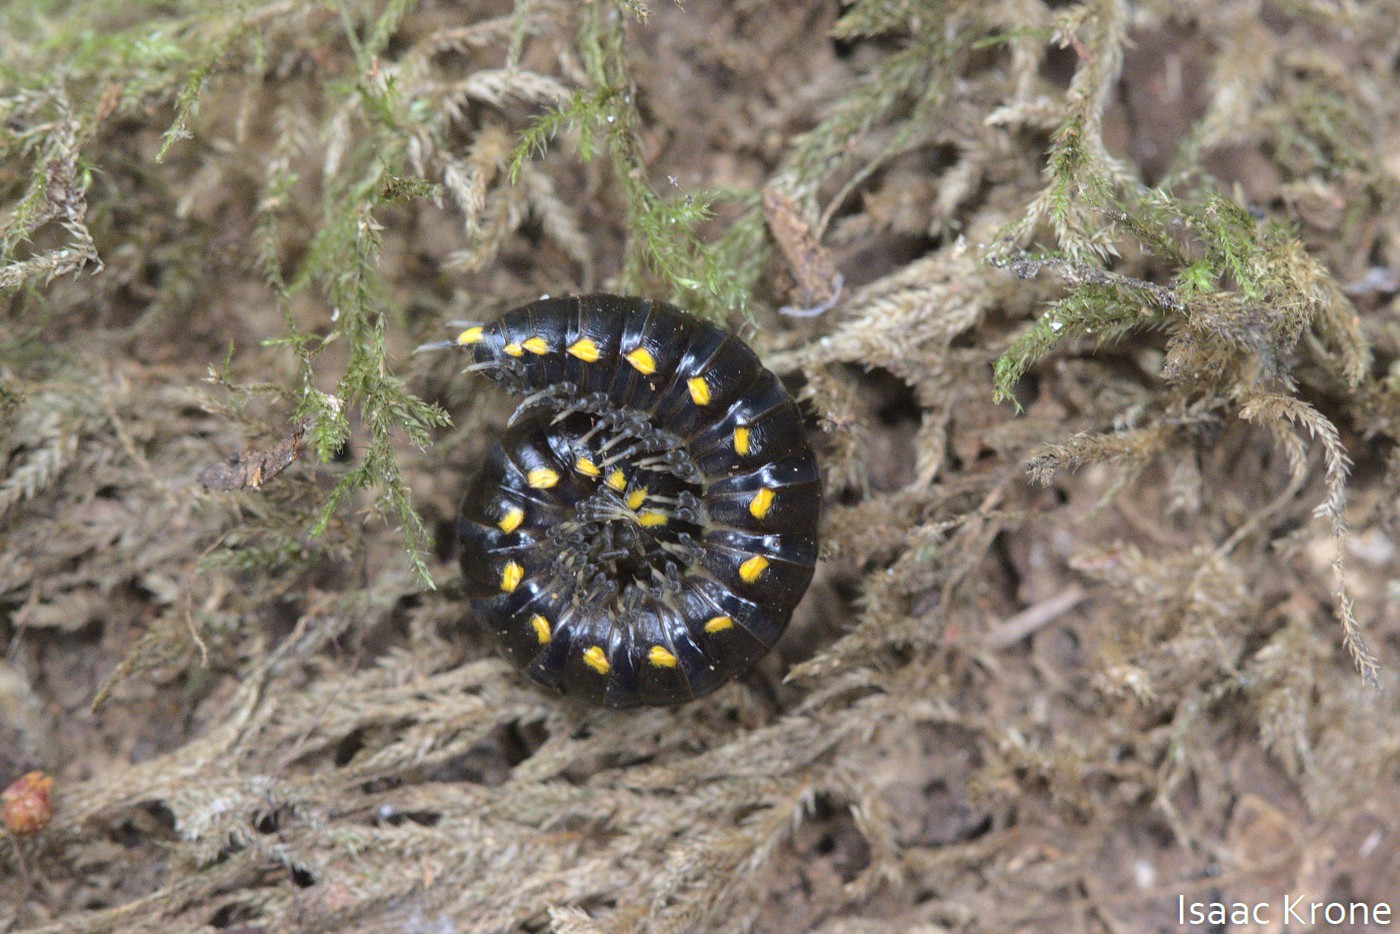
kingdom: Animalia
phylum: Arthropoda
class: Diplopoda
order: Polydesmida
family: Xystodesmidae
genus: Harpaphe
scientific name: Harpaphe haydeniana
